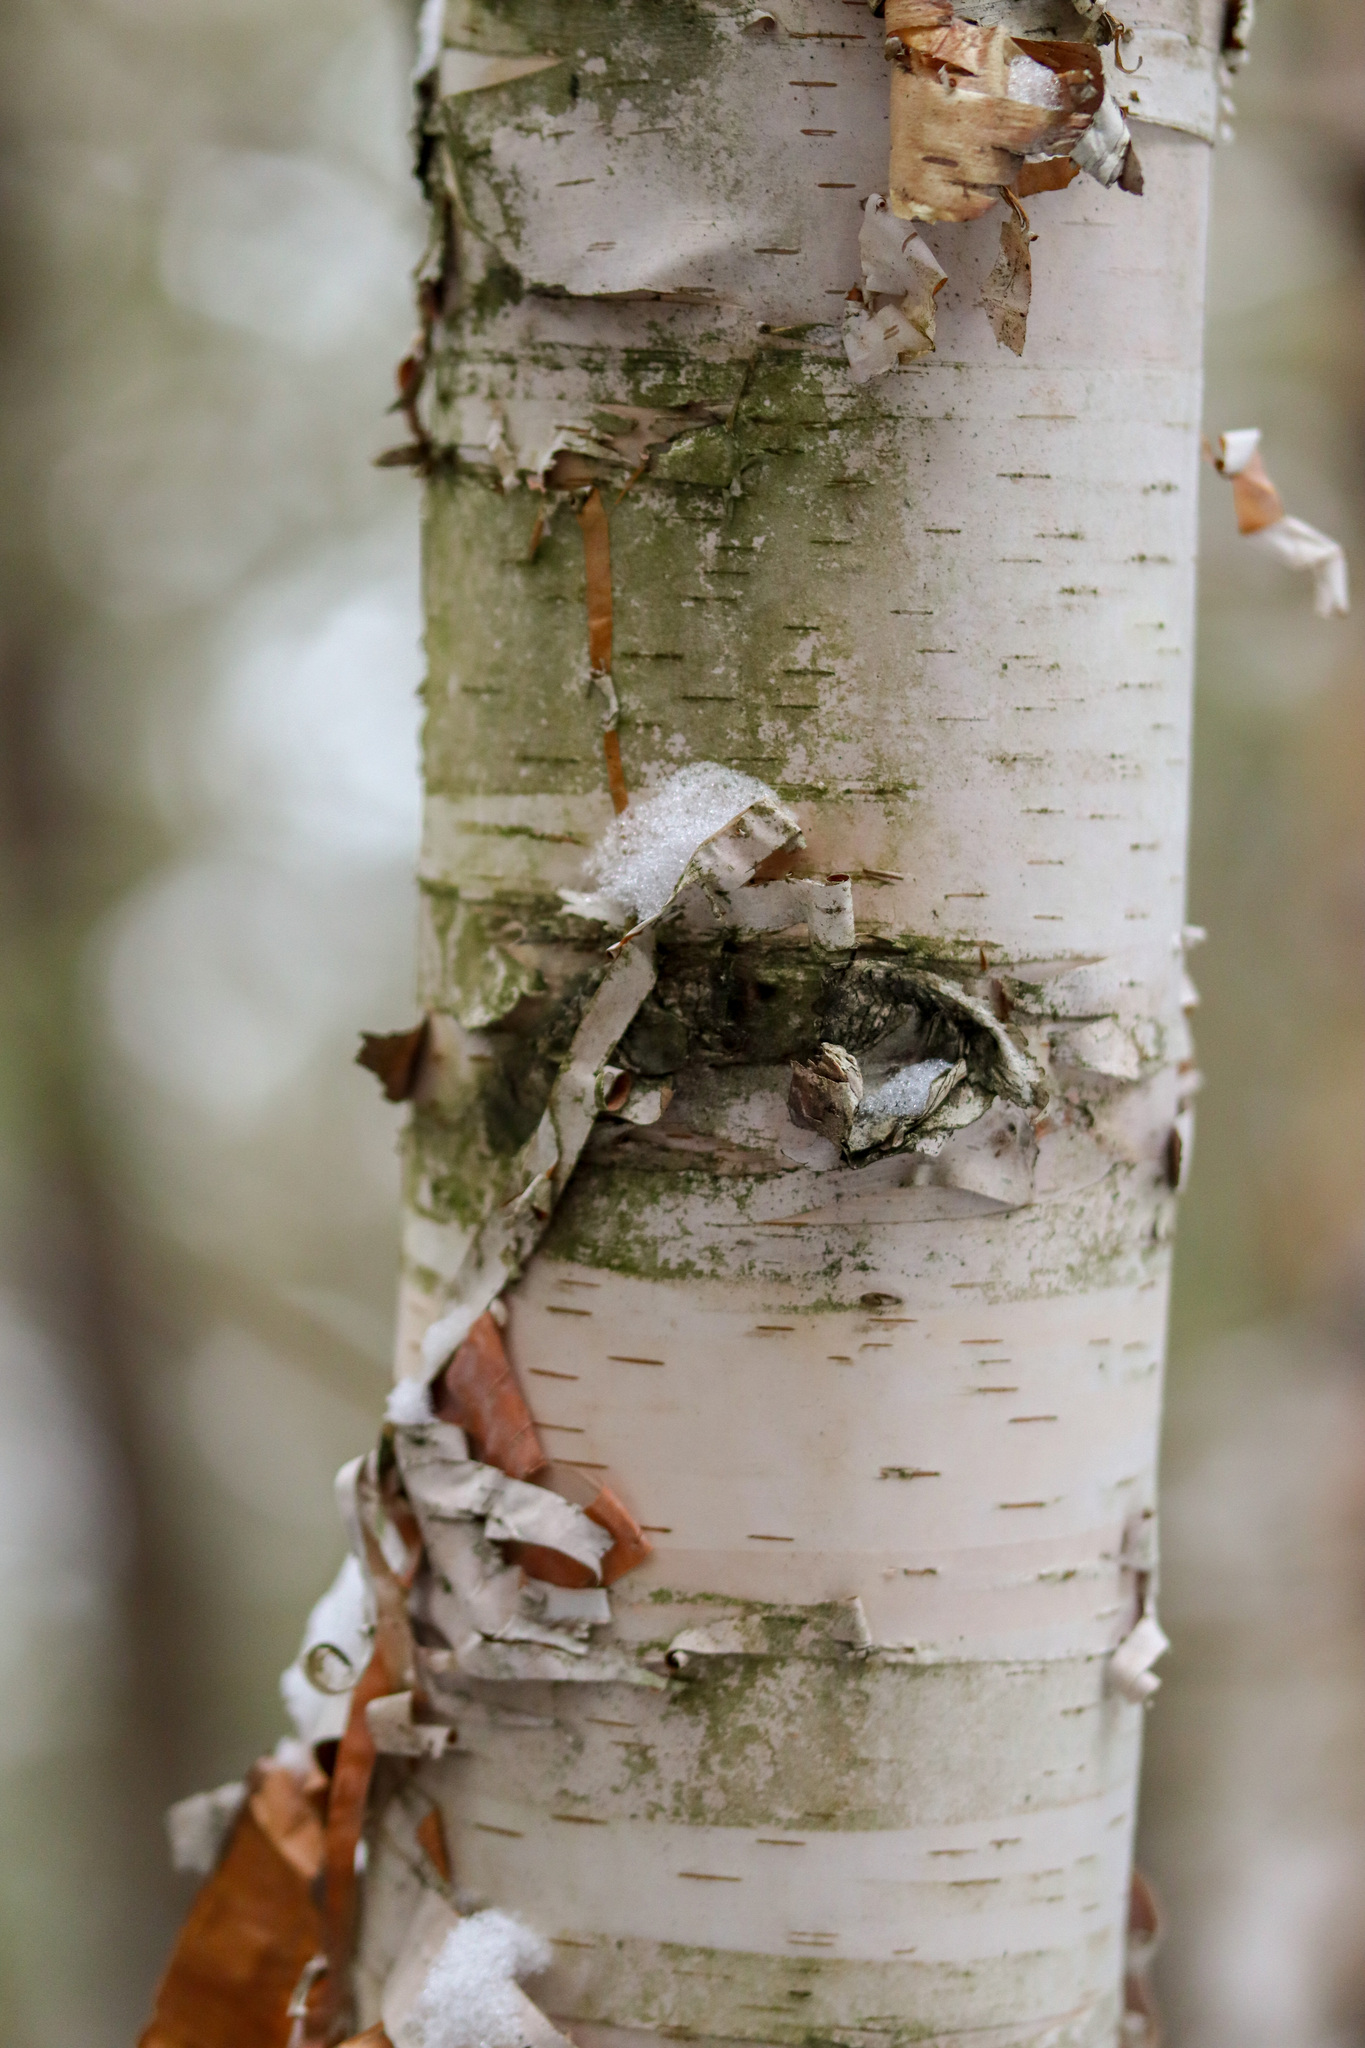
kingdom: Plantae
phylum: Tracheophyta
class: Magnoliopsida
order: Fagales
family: Betulaceae
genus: Betula
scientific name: Betula papyrifera
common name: Paper birch
